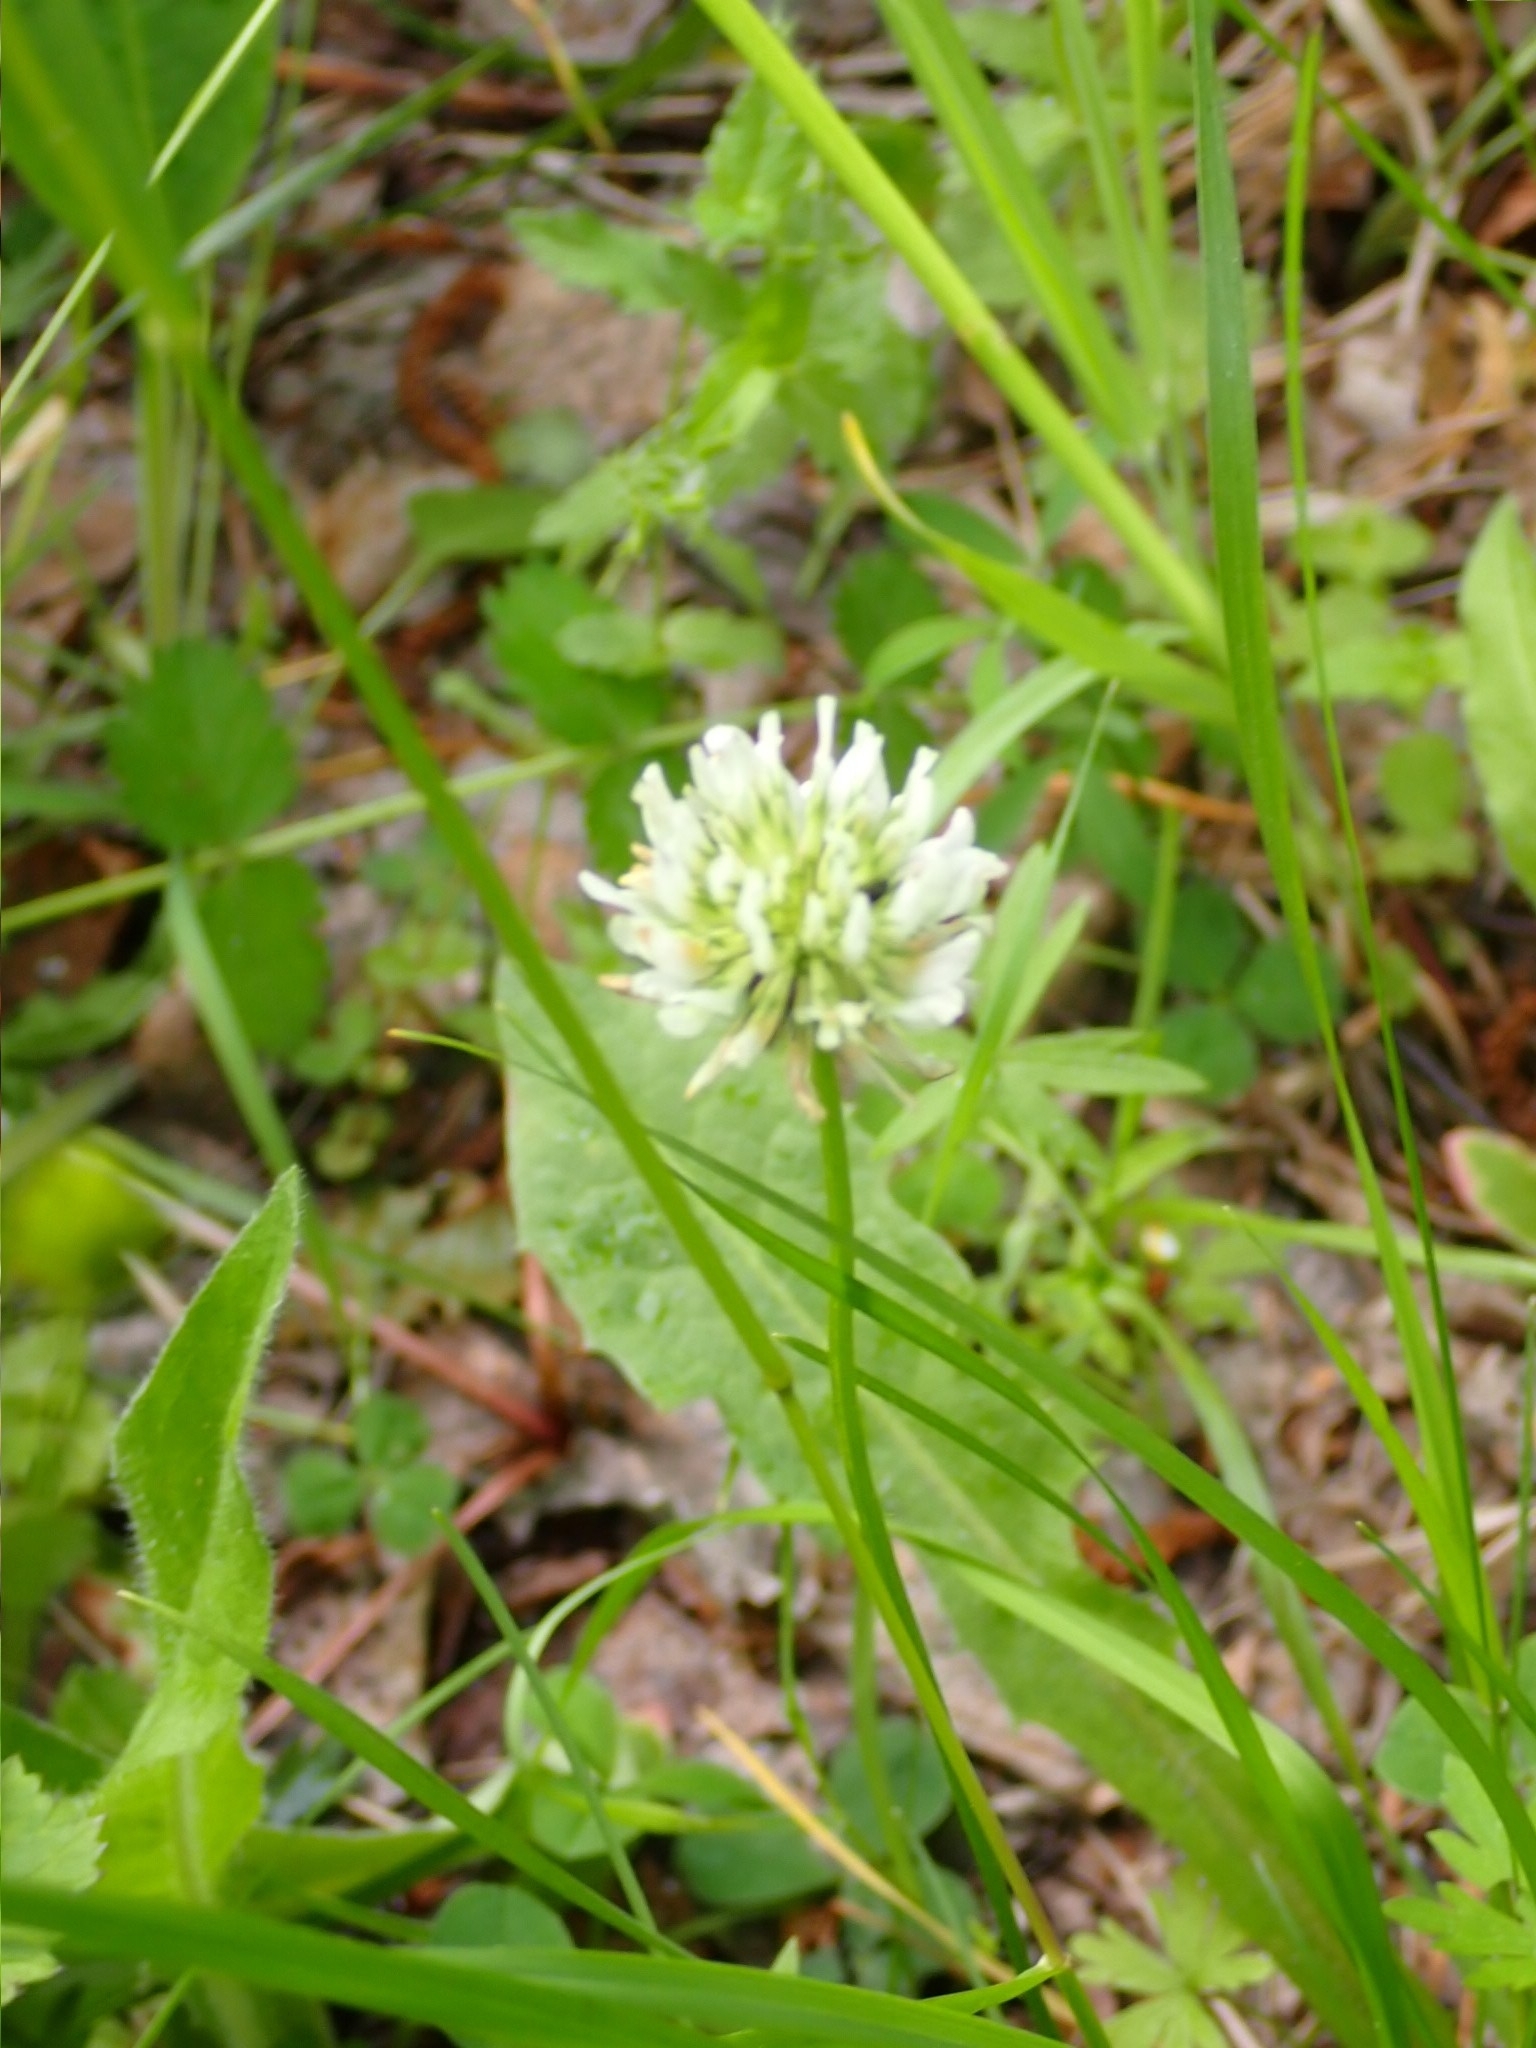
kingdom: Plantae
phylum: Tracheophyta
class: Magnoliopsida
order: Fabales
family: Fabaceae
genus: Trifolium
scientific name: Trifolium repens
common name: White clover
